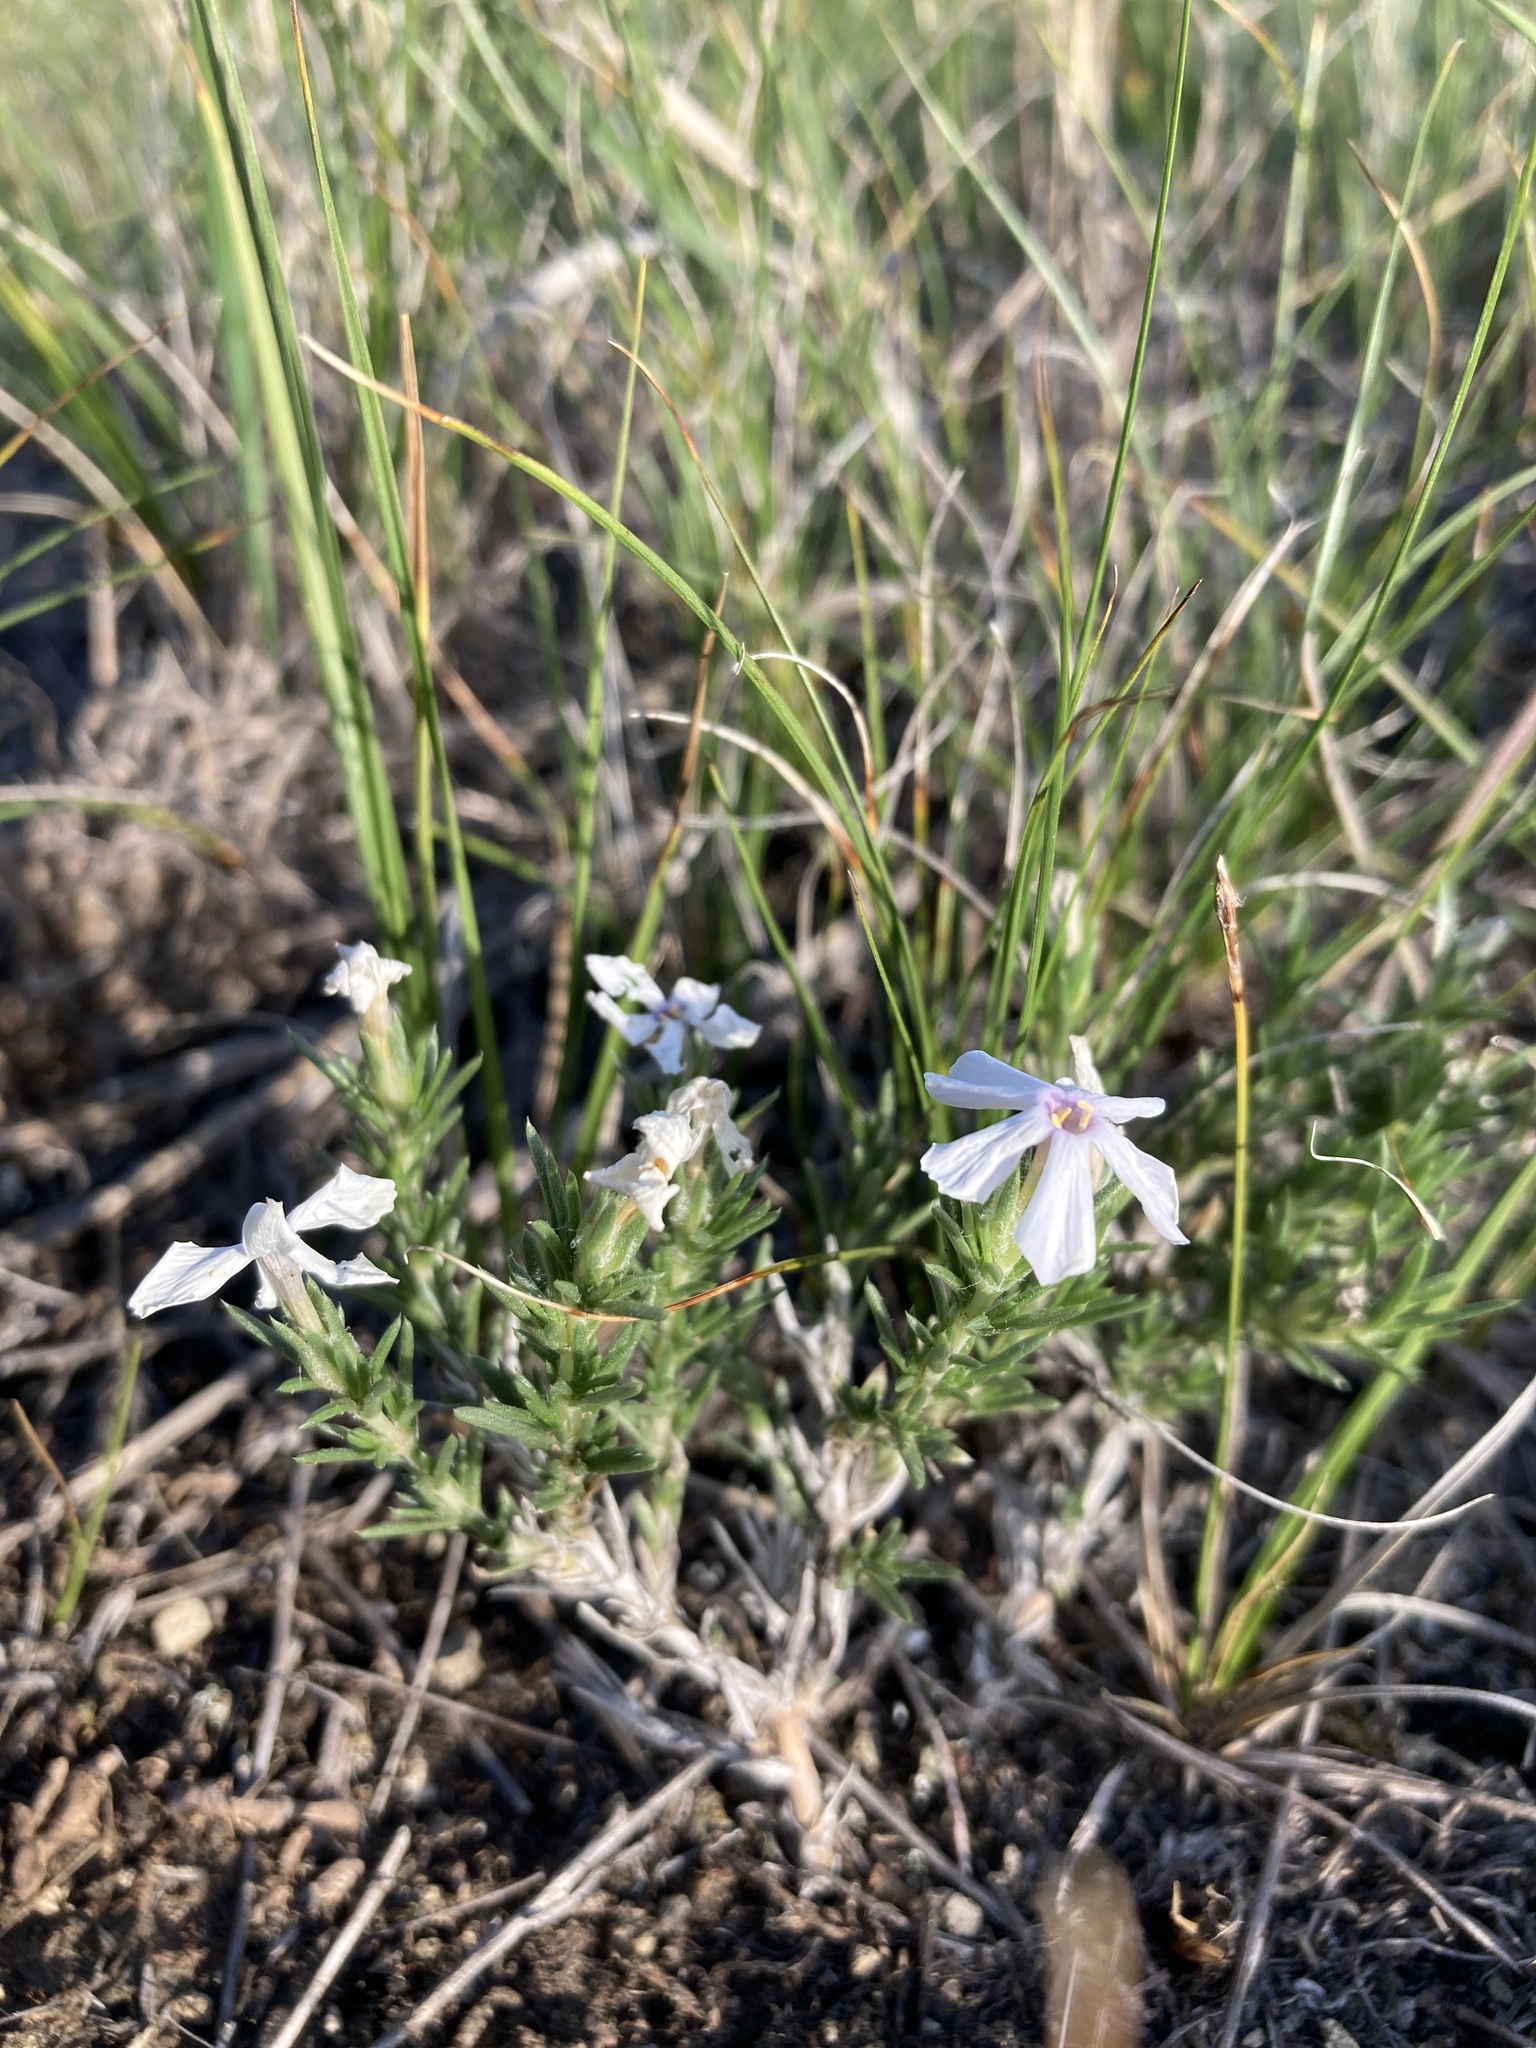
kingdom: Plantae
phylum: Tracheophyta
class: Magnoliopsida
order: Ericales
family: Polemoniaceae
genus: Phlox
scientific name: Phlox andicola
